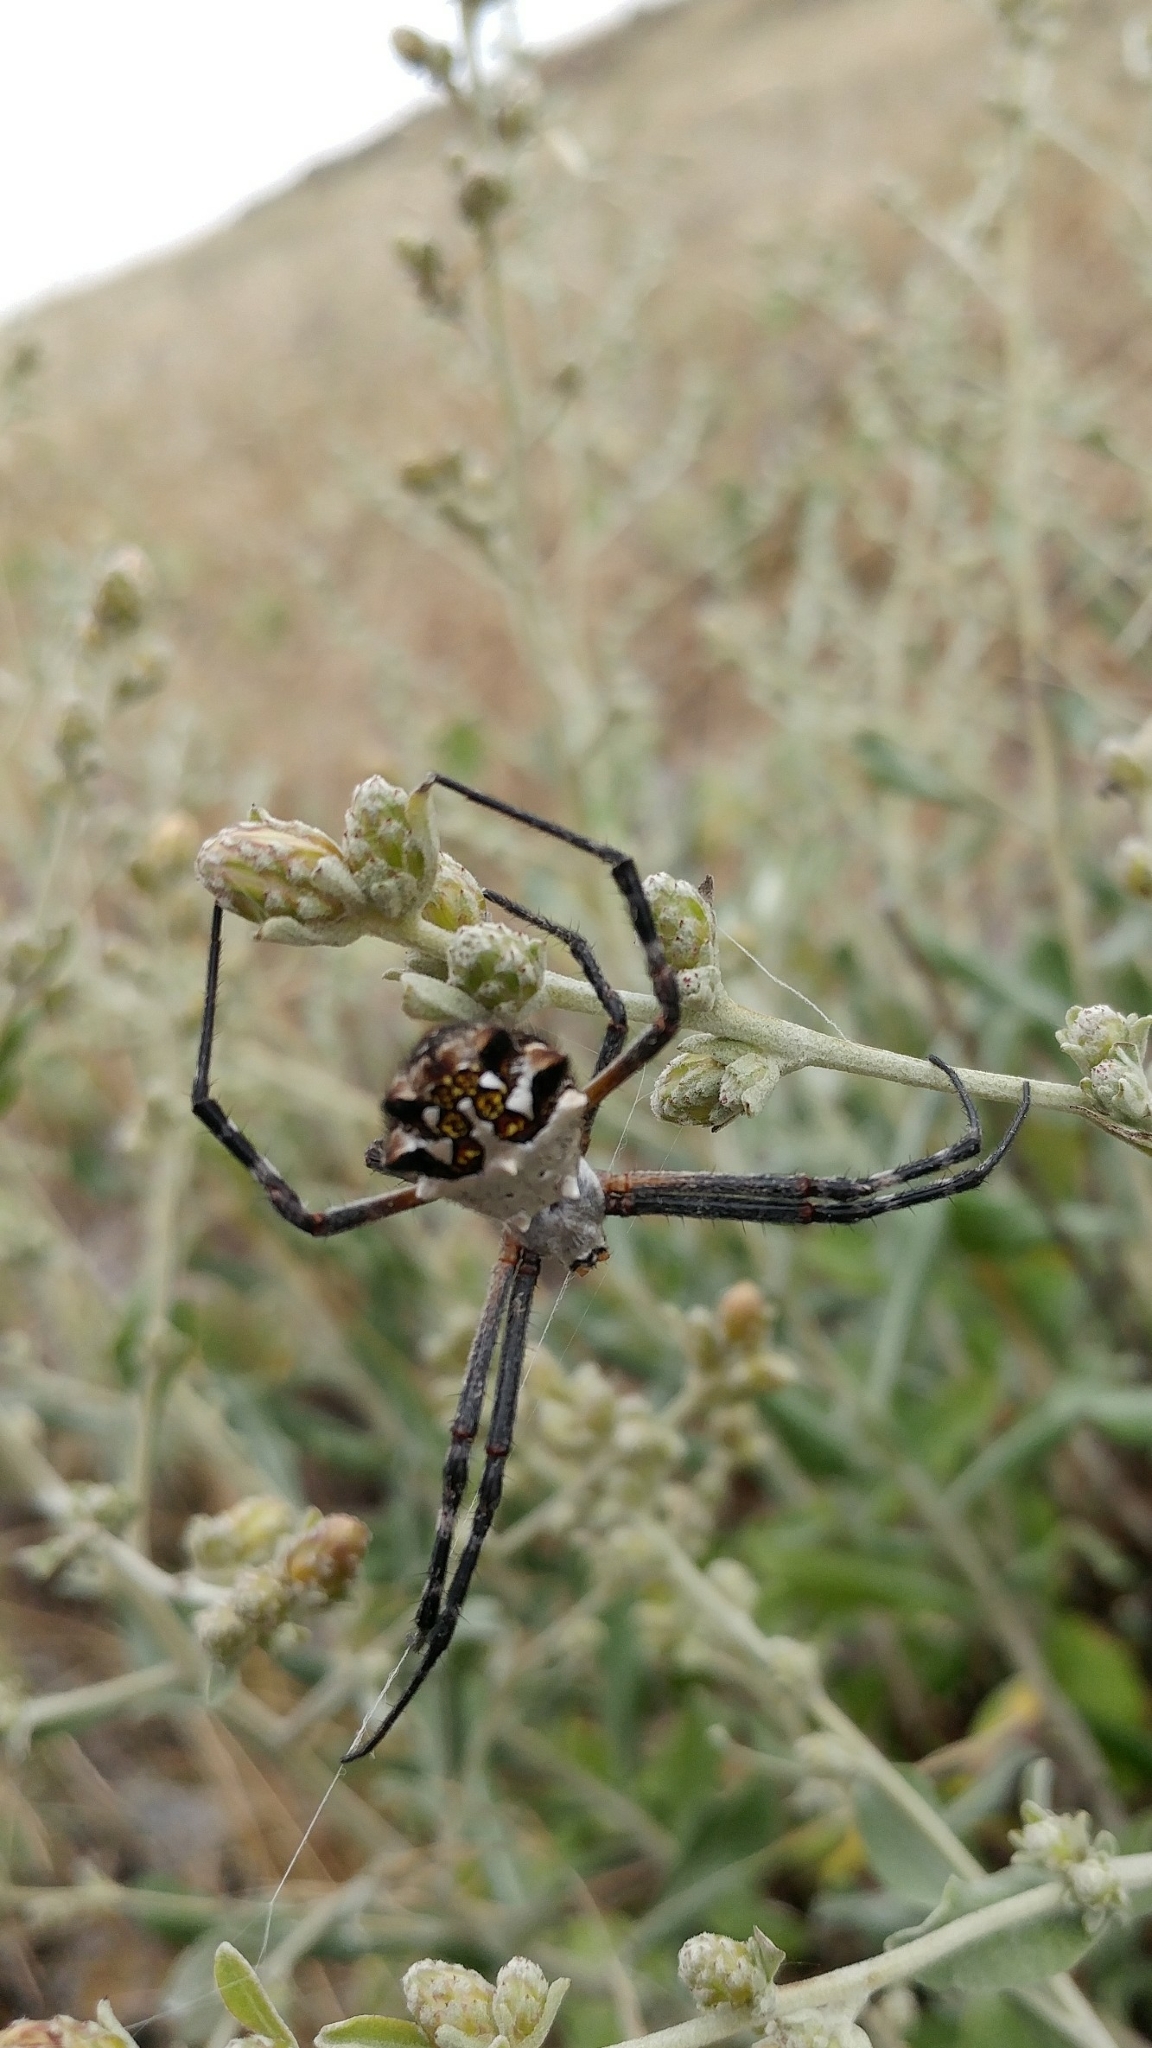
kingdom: Animalia
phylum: Arthropoda
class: Arachnida
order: Araneae
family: Araneidae
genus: Argiope
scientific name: Argiope argentata
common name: Orb weavers
